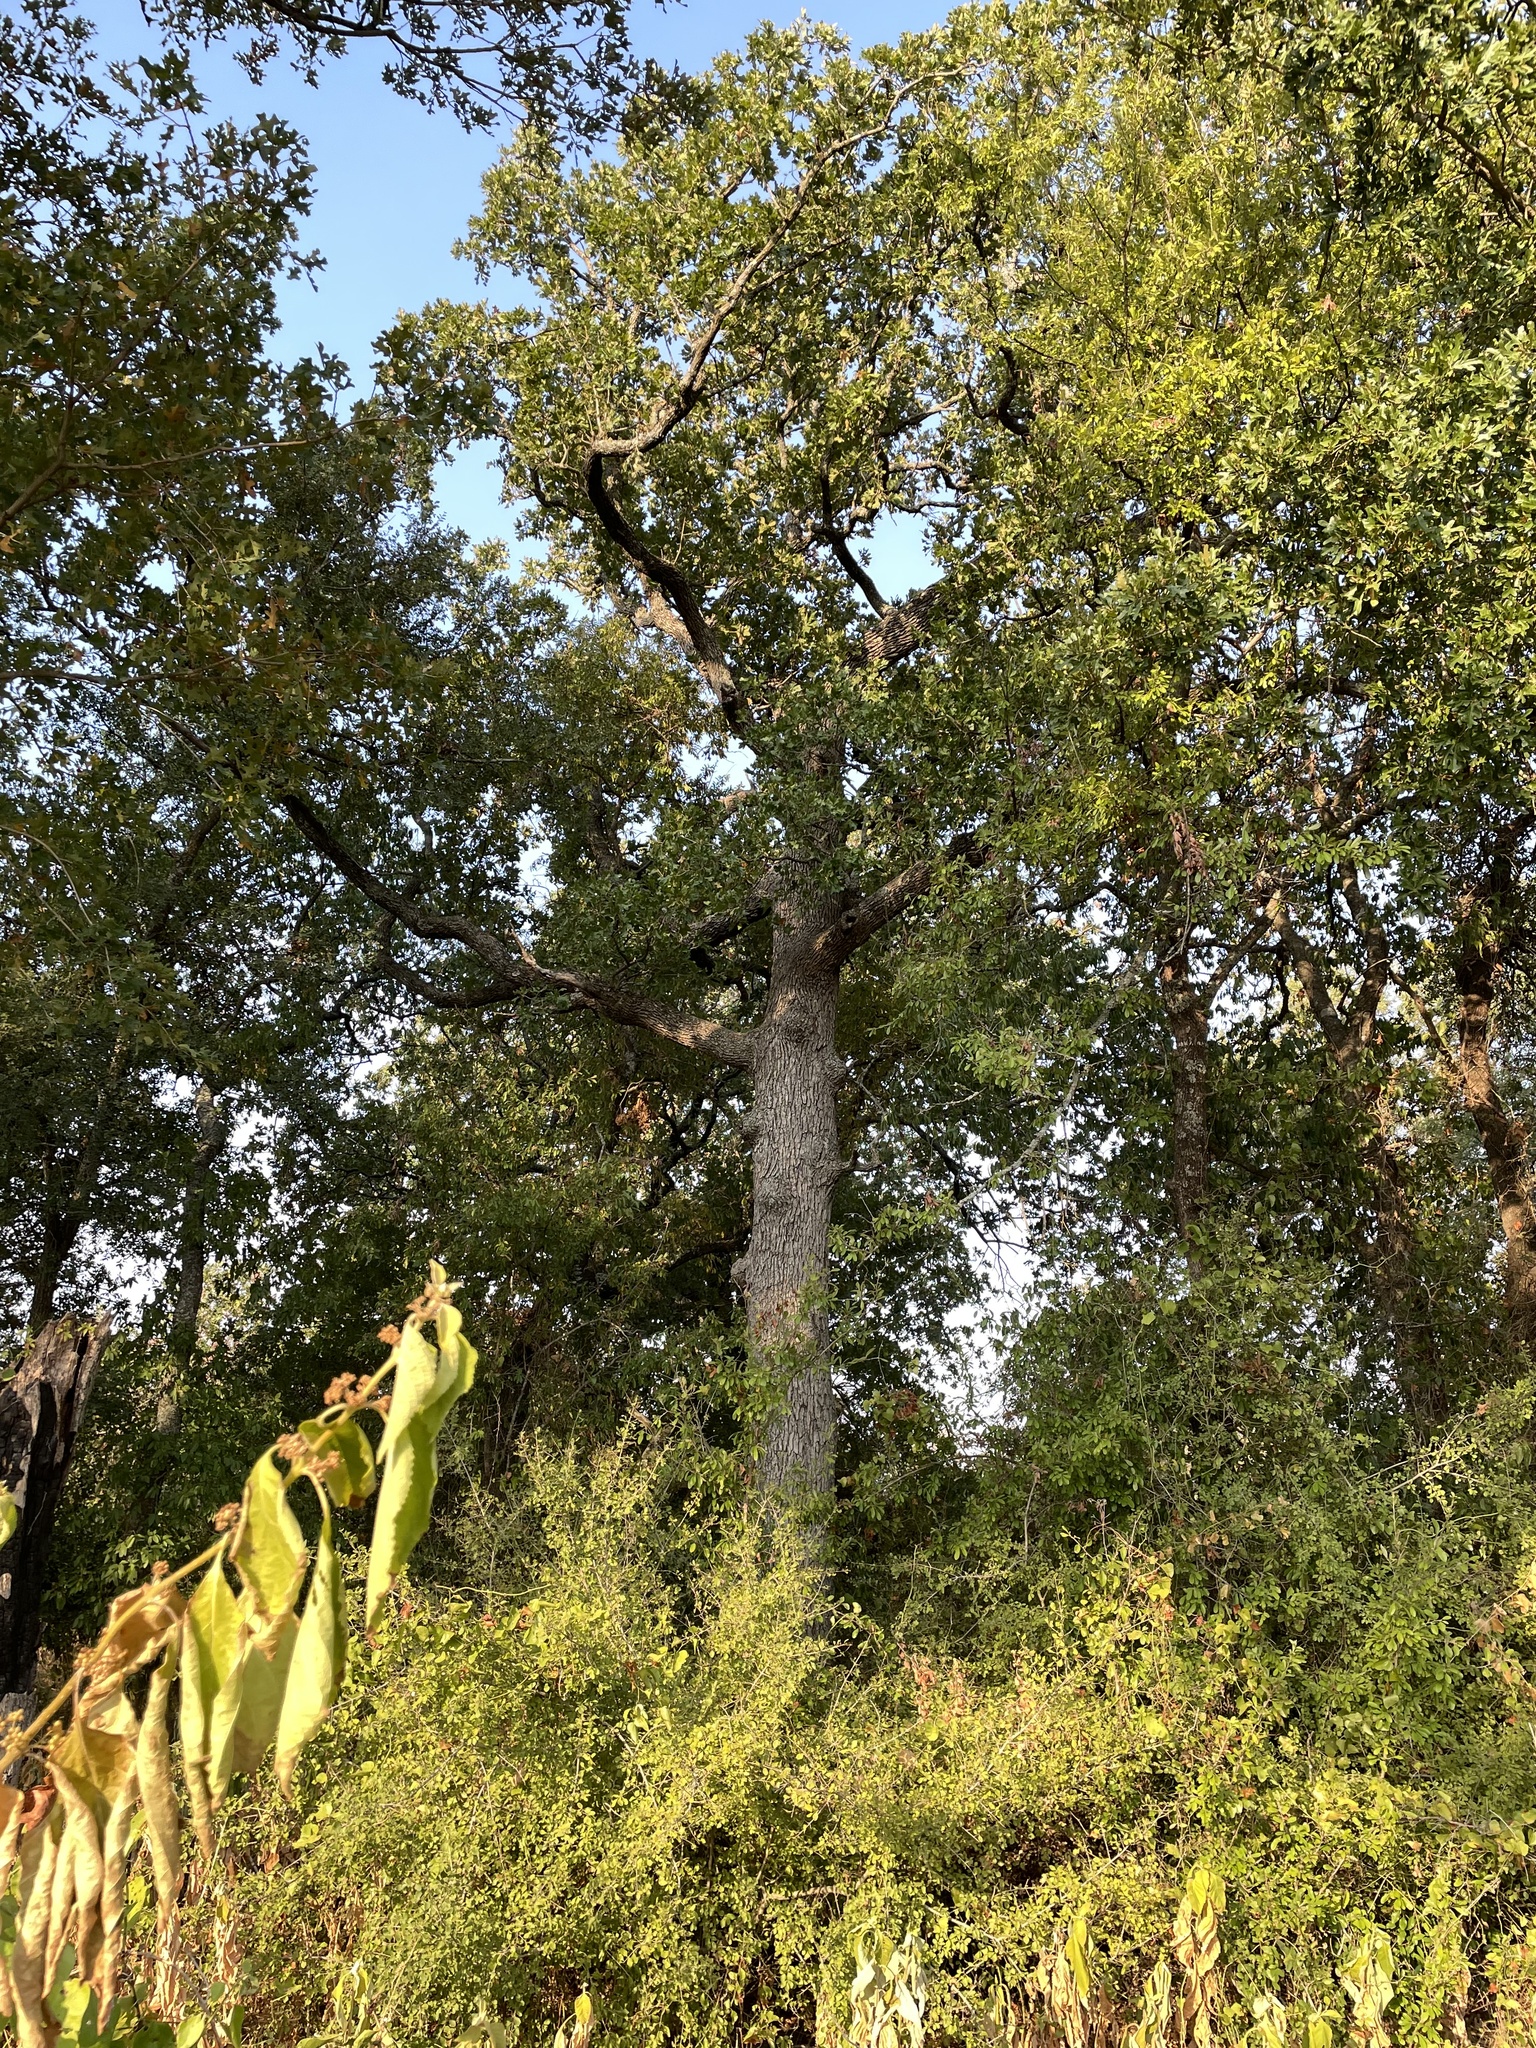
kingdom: Plantae
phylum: Tracheophyta
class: Magnoliopsida
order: Fagales
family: Fagaceae
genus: Quercus
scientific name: Quercus stellata
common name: Post oak
